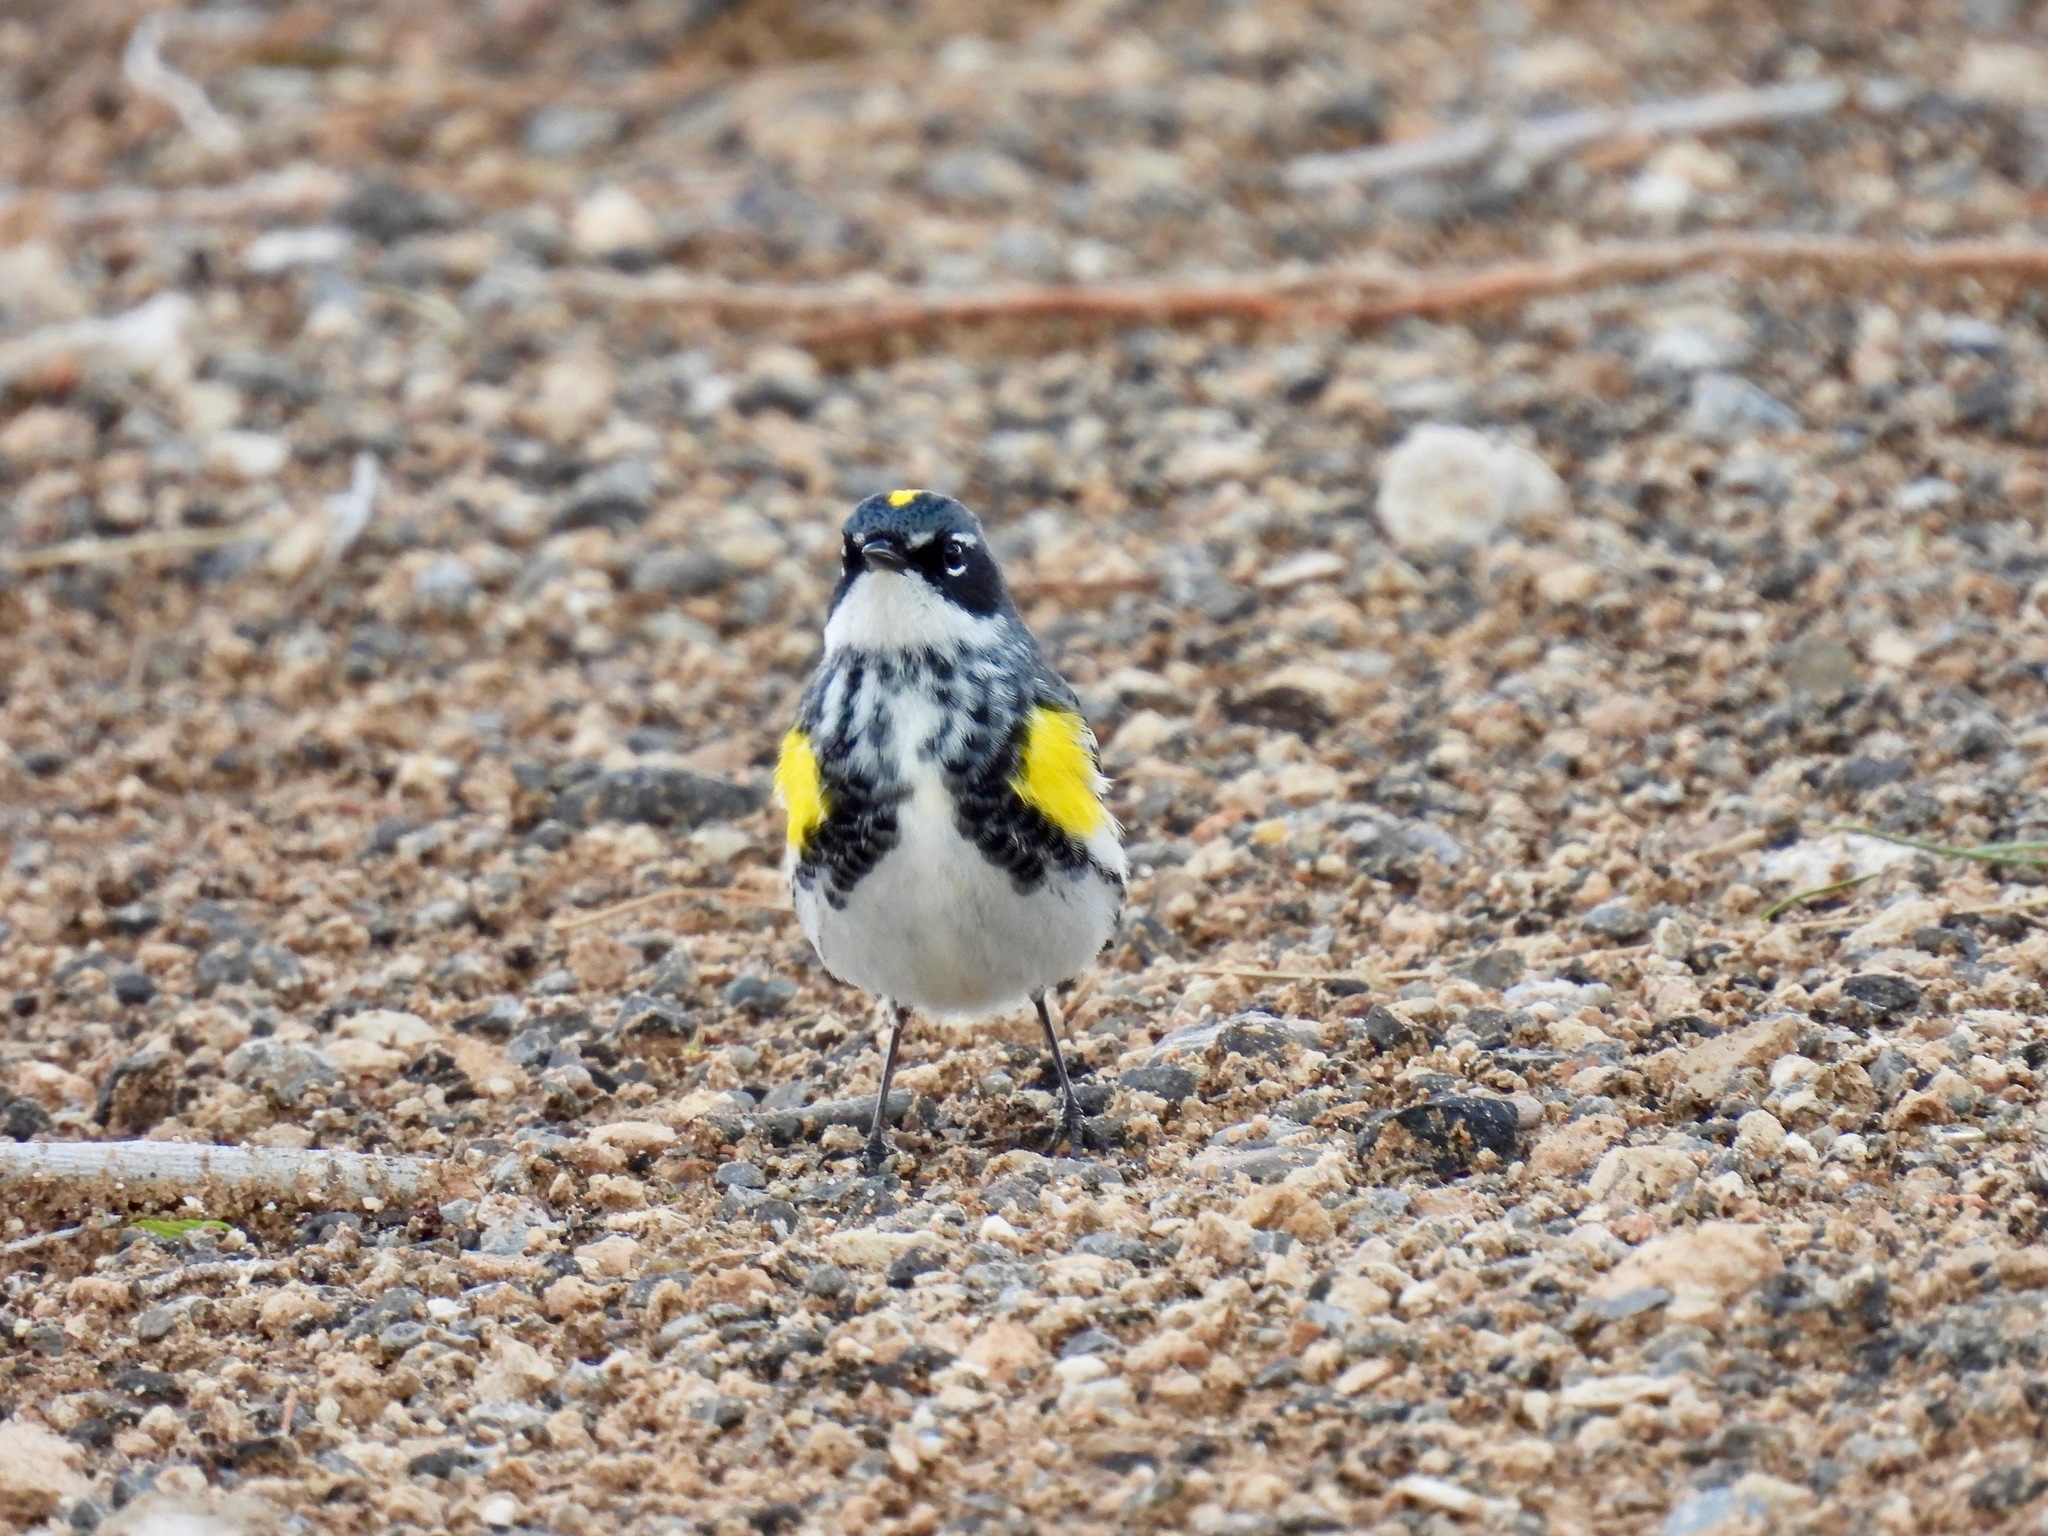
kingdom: Animalia
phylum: Chordata
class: Aves
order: Passeriformes
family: Parulidae
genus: Setophaga
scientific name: Setophaga coronata
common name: Myrtle warbler
